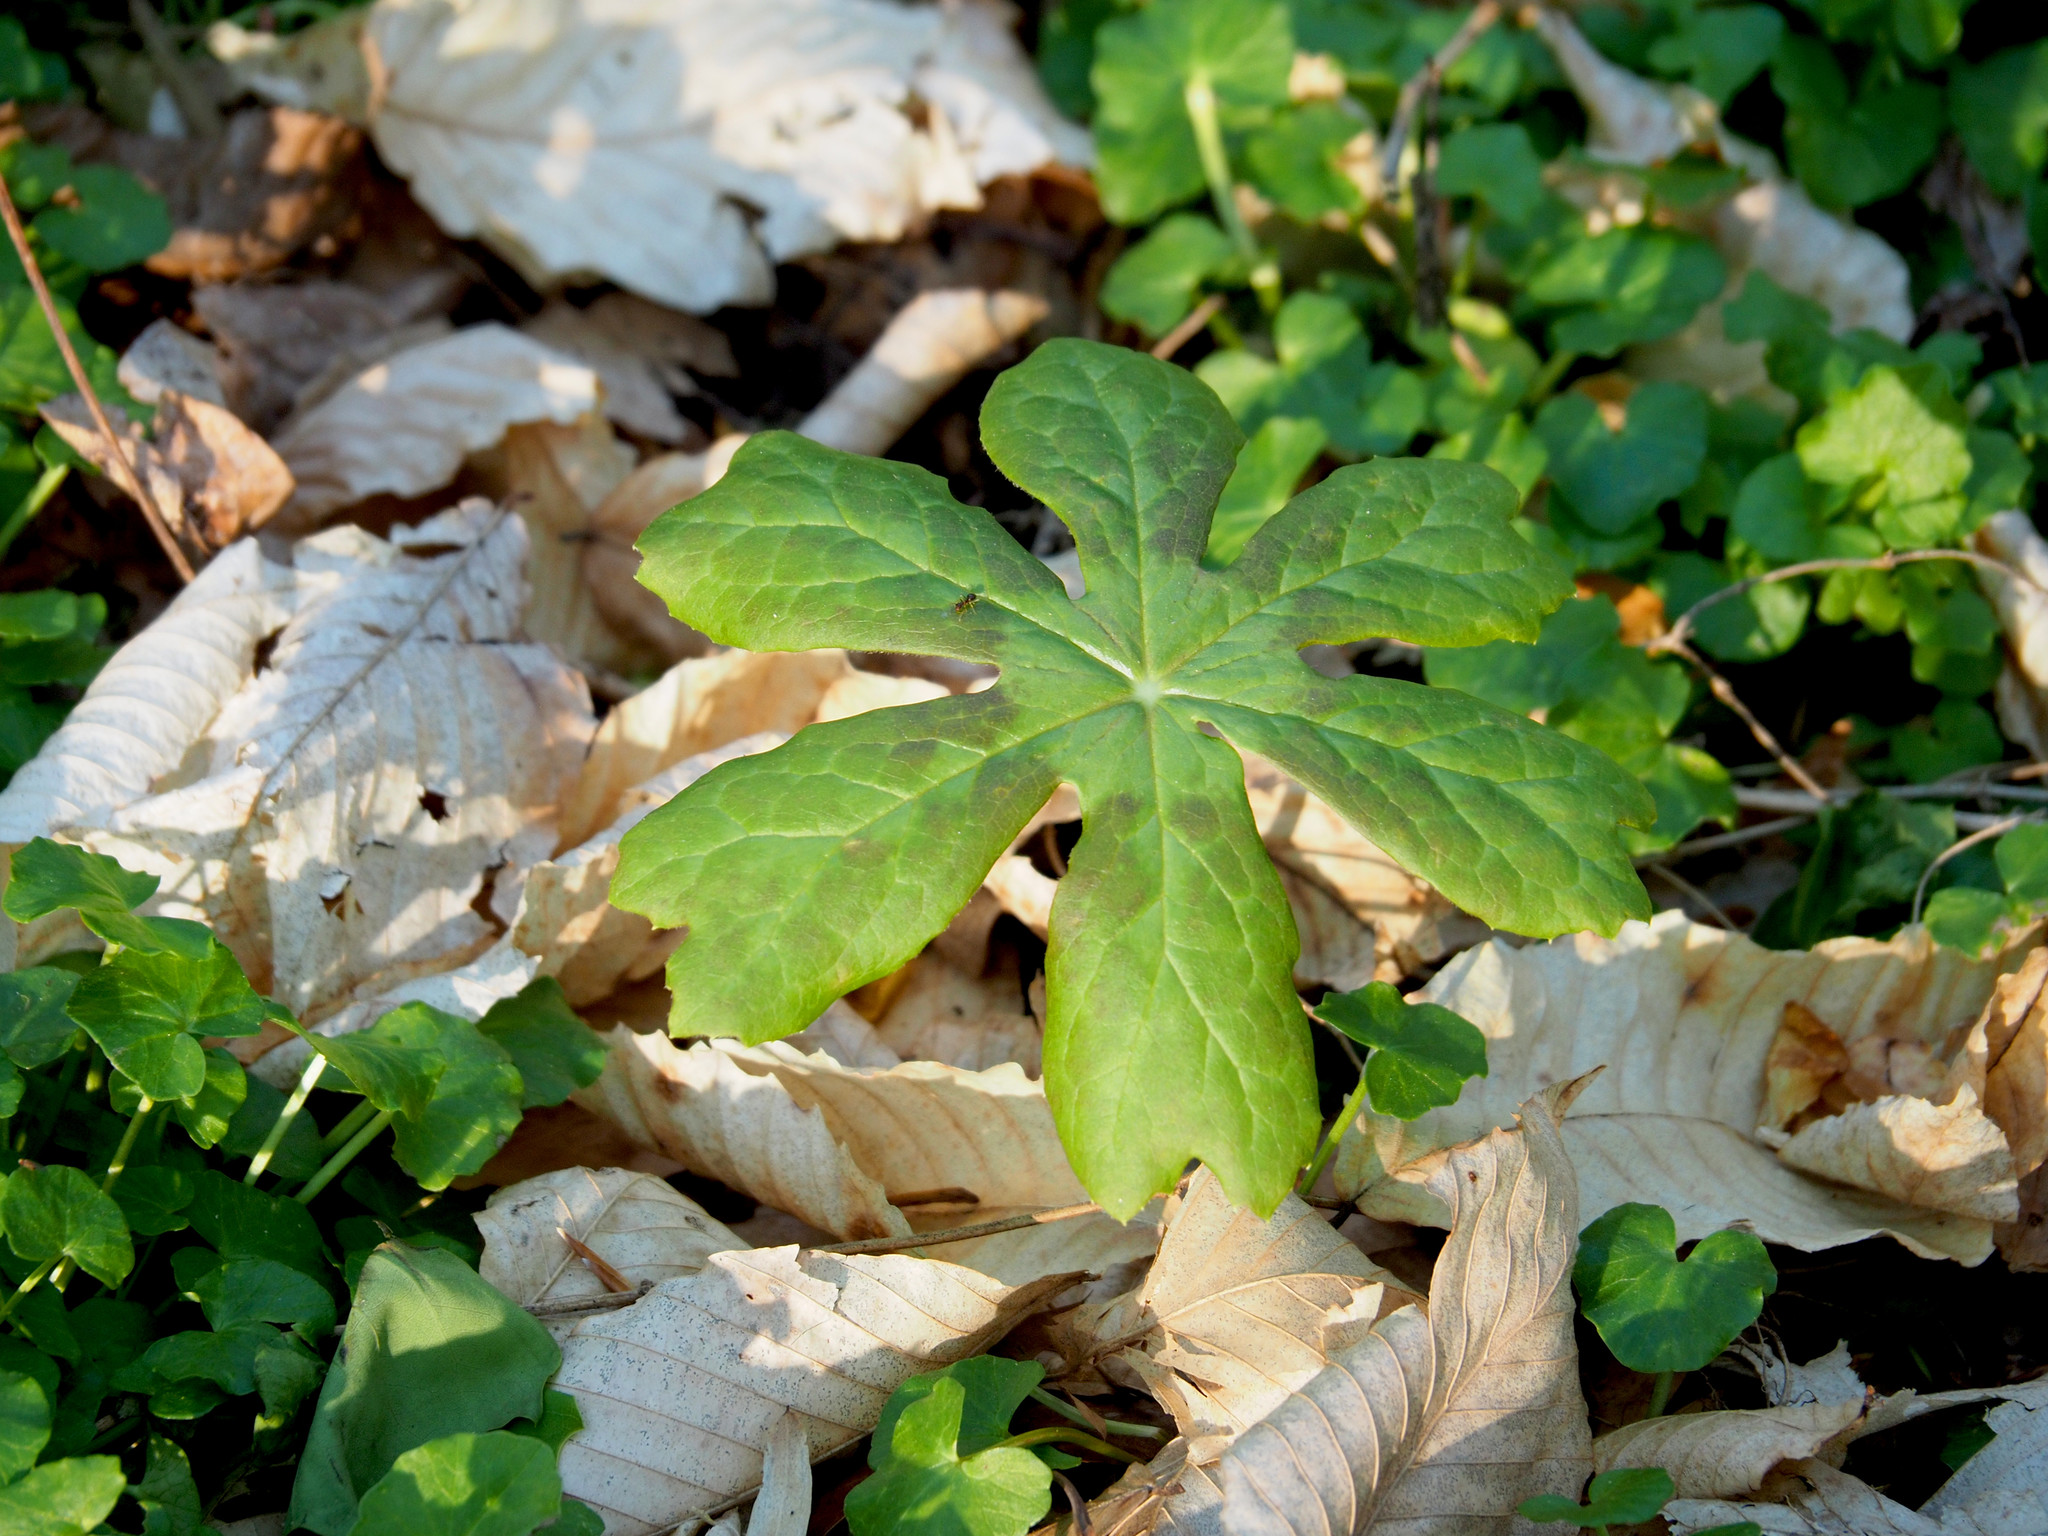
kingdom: Plantae
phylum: Tracheophyta
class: Magnoliopsida
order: Ranunculales
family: Berberidaceae
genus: Podophyllum
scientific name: Podophyllum peltatum
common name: Wild mandrake
